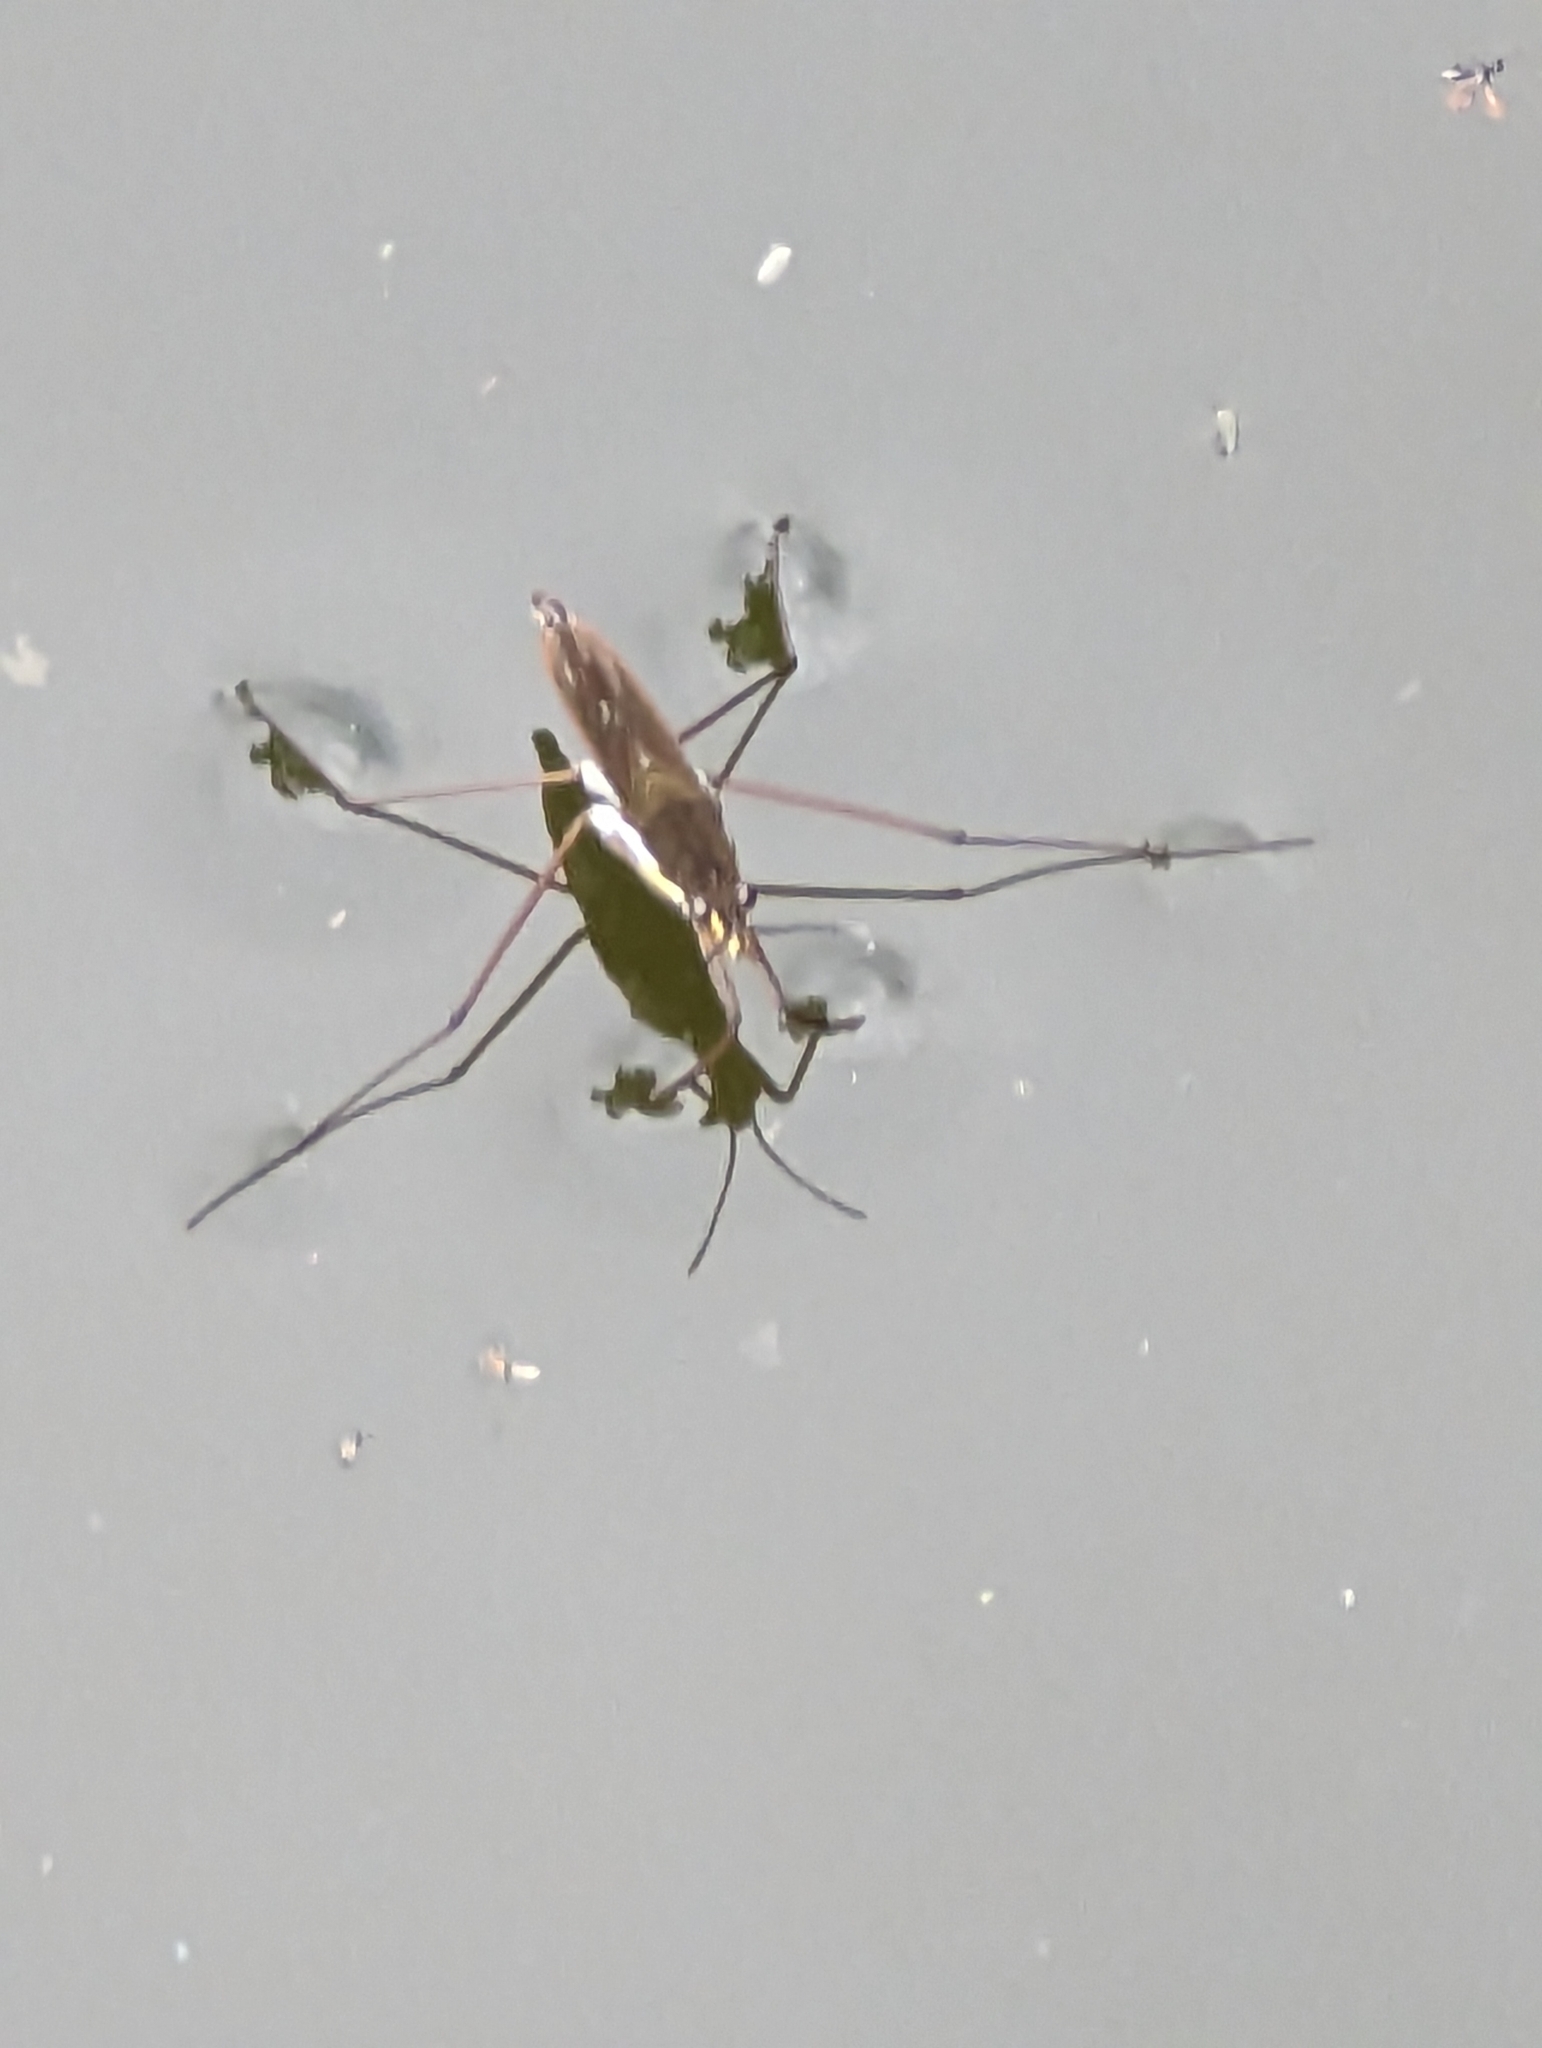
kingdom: Animalia
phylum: Arthropoda
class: Insecta
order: Hemiptera
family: Gerridae
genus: Gerris
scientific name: Gerris
